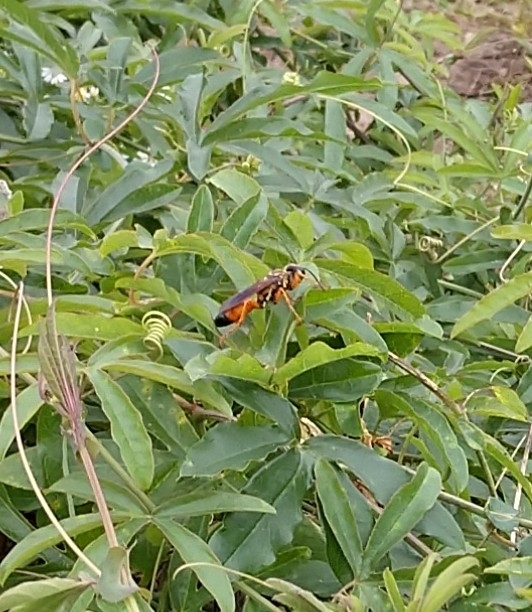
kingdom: Animalia
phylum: Arthropoda
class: Insecta
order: Hymenoptera
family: Sphecidae
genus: Sphex
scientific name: Sphex ichneumoneus
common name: Great golden digger wasp
